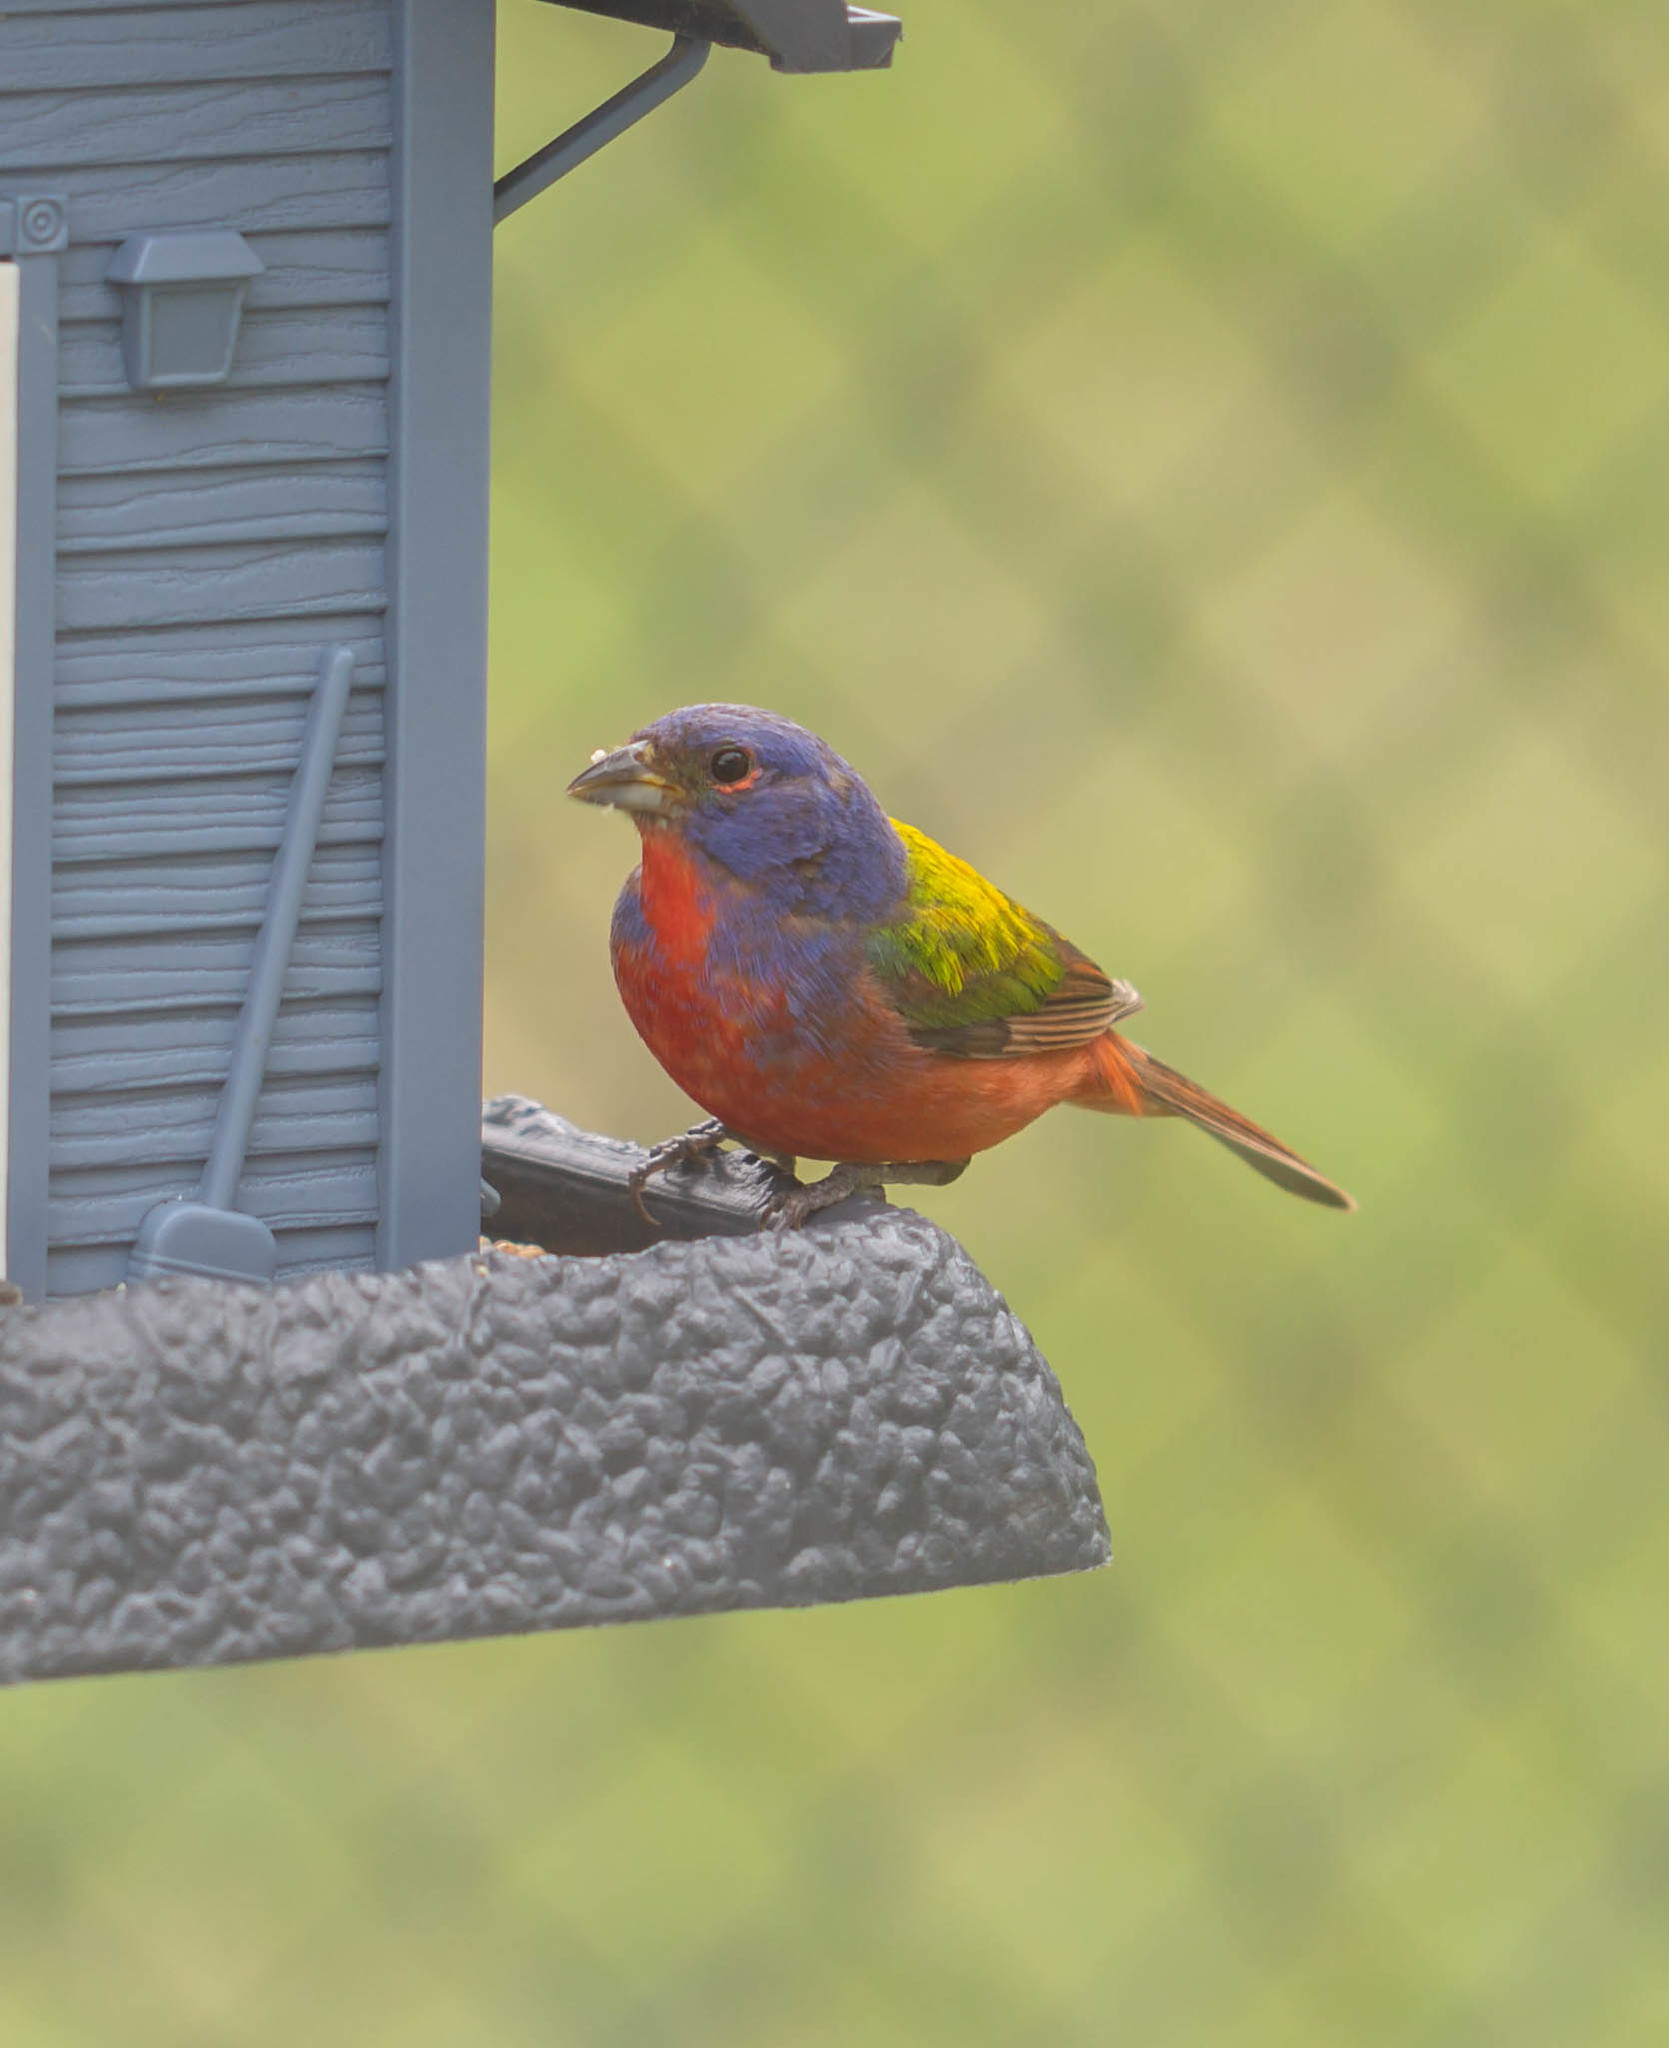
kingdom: Animalia
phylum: Chordata
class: Aves
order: Passeriformes
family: Cardinalidae
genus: Passerina
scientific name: Passerina ciris
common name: Painted bunting
